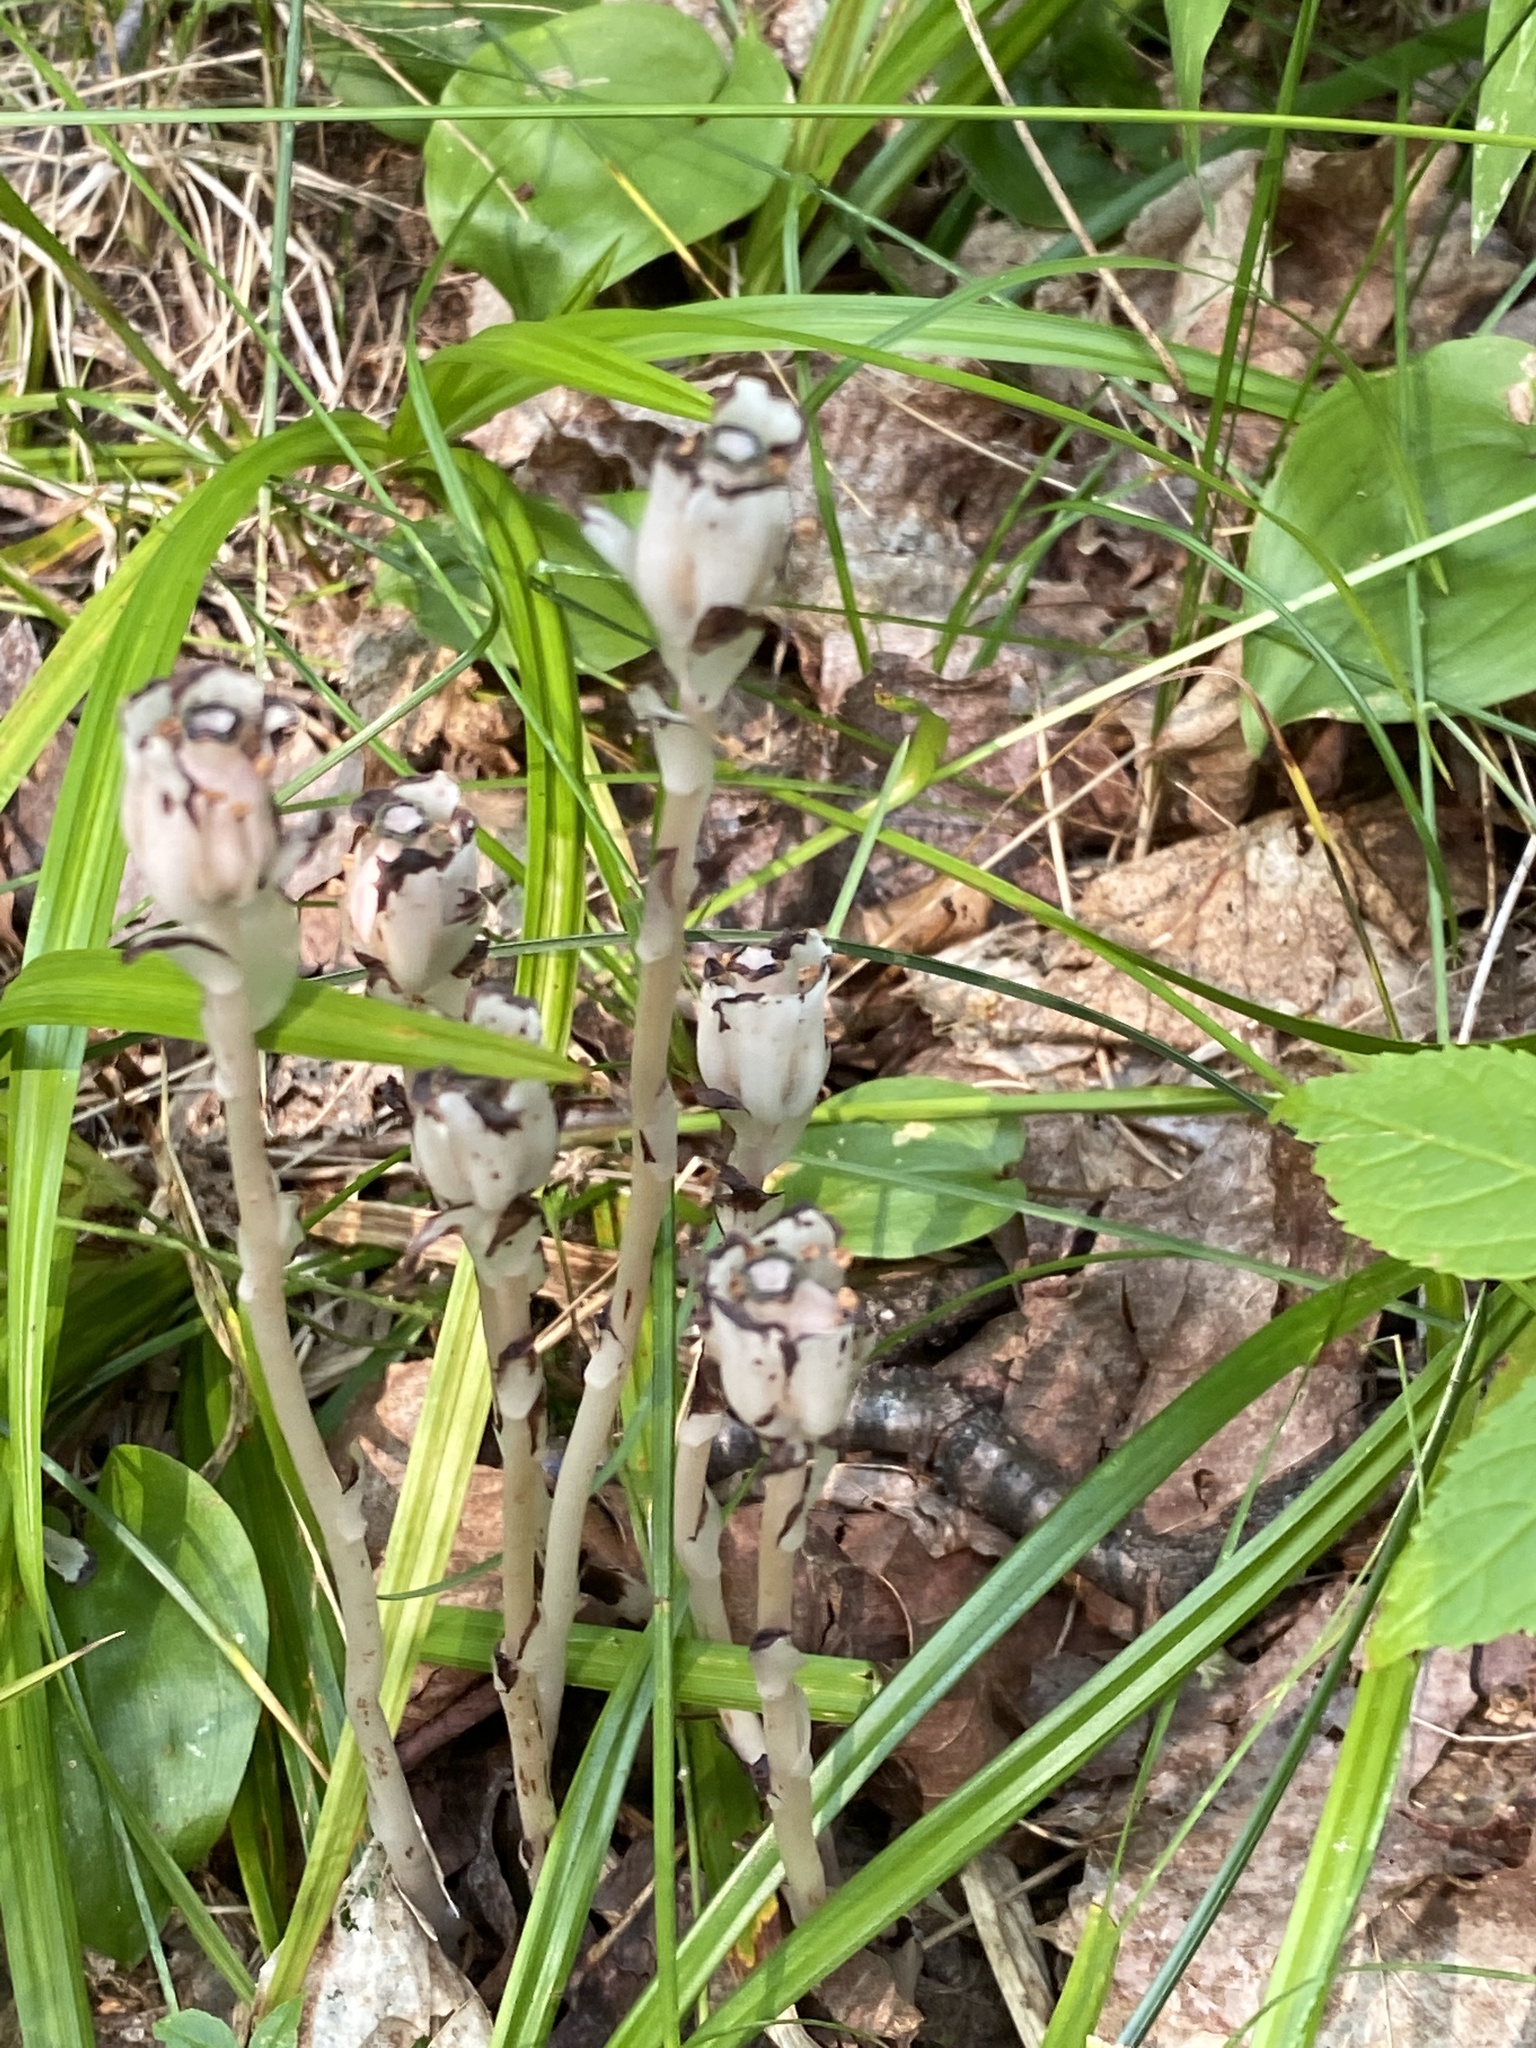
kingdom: Plantae
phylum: Tracheophyta
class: Magnoliopsida
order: Ericales
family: Ericaceae
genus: Monotropa
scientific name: Monotropa uniflora
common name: Convulsion root
